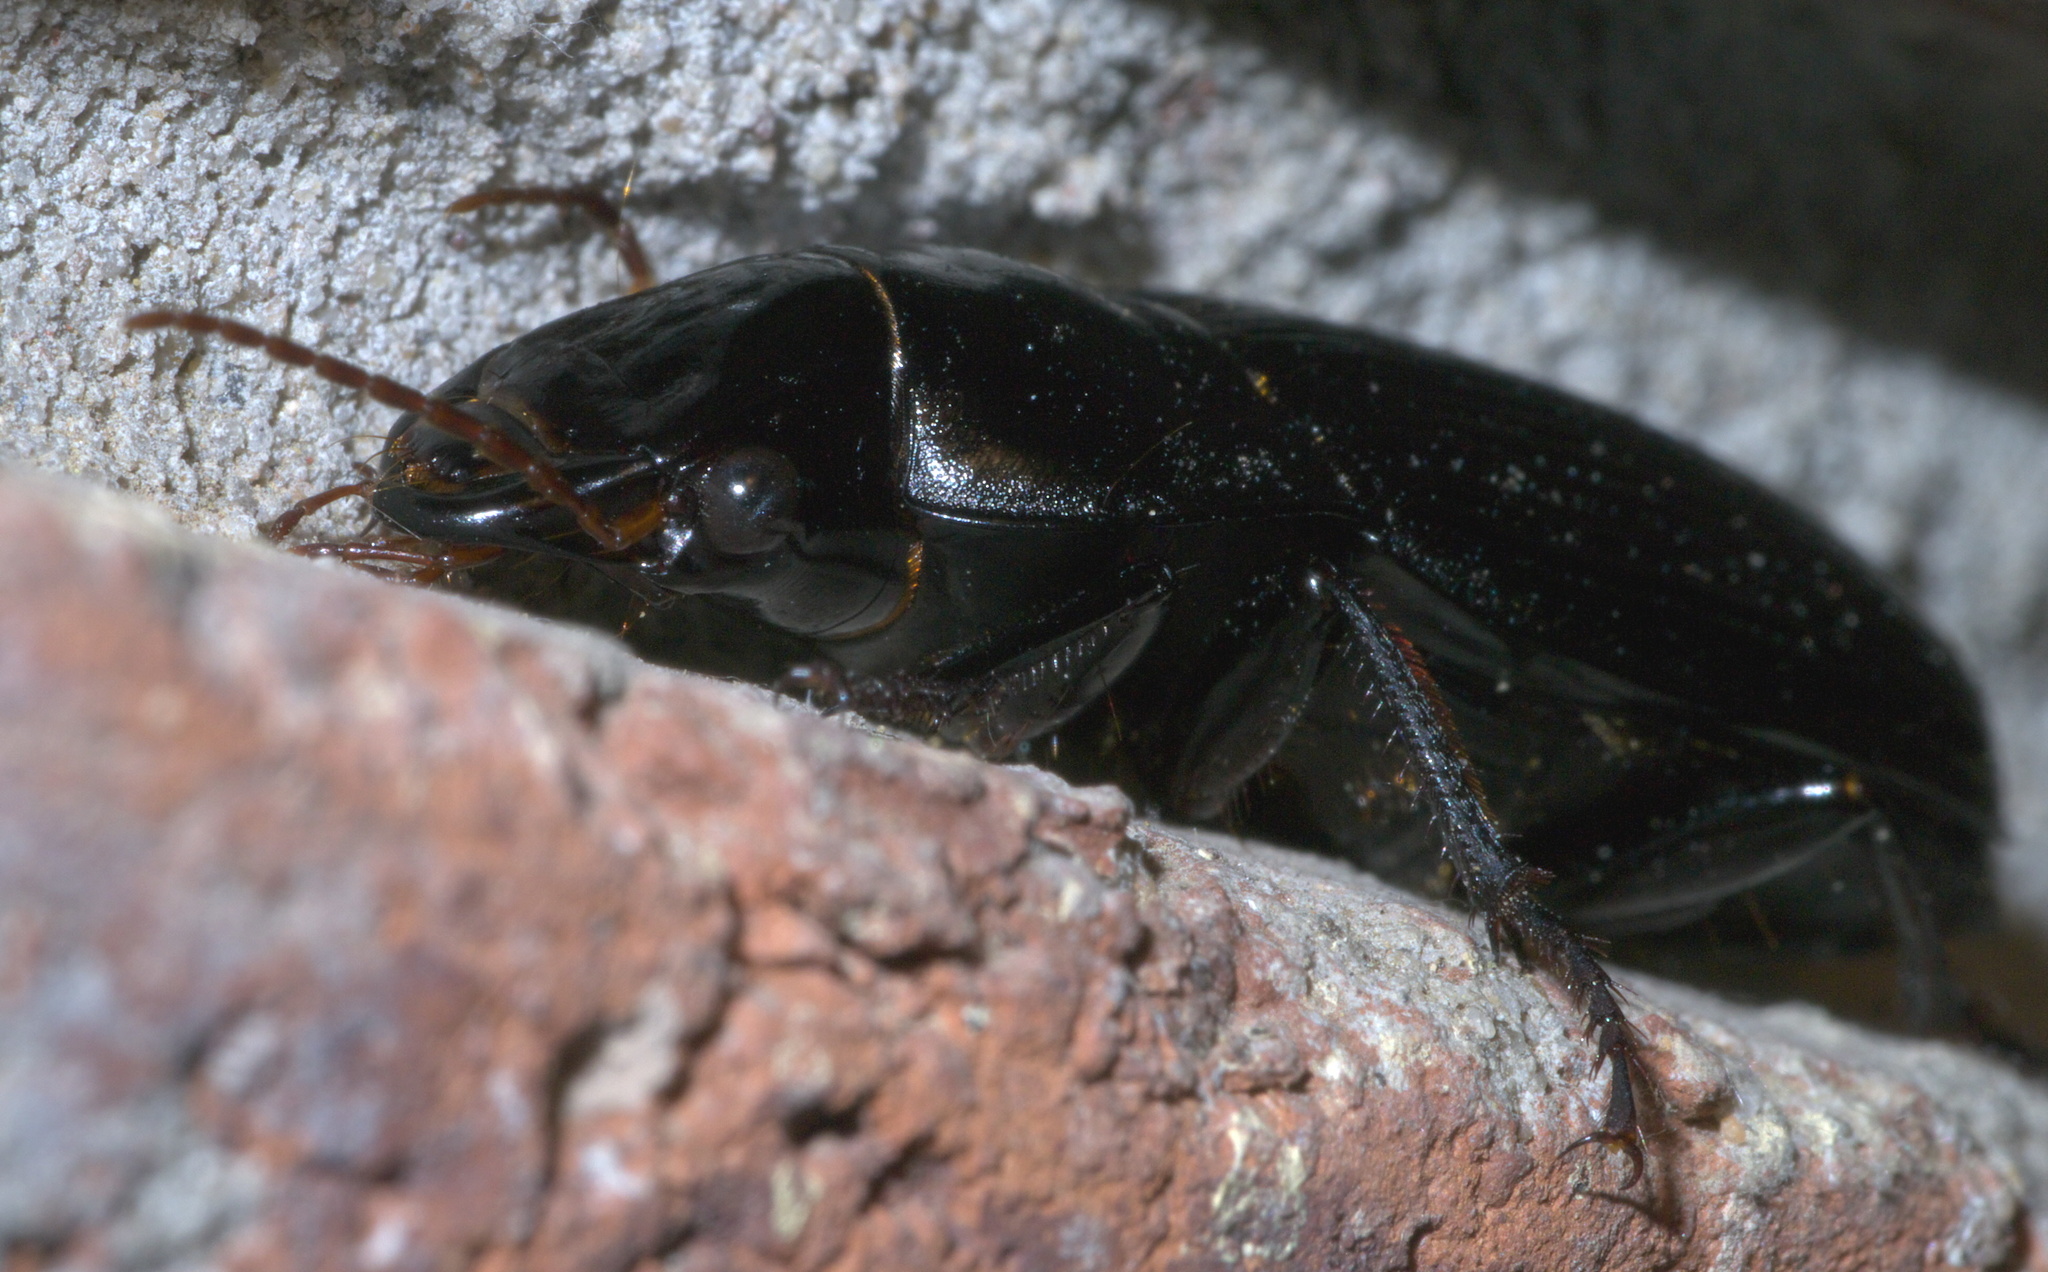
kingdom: Animalia
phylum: Arthropoda
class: Insecta
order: Coleoptera
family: Carabidae
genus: Harpalus
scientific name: Harpalus caliginosus
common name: Murky ground beetle
